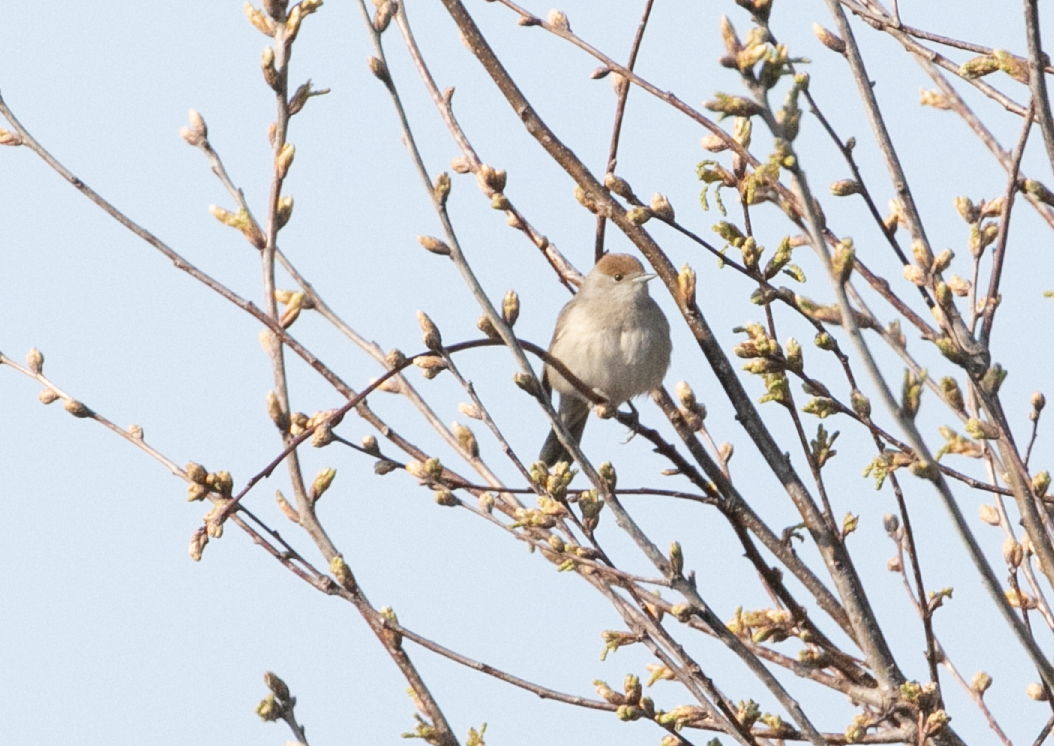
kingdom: Animalia
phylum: Chordata
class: Aves
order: Passeriformes
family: Sylviidae
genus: Sylvia
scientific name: Sylvia atricapilla
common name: Eurasian blackcap
